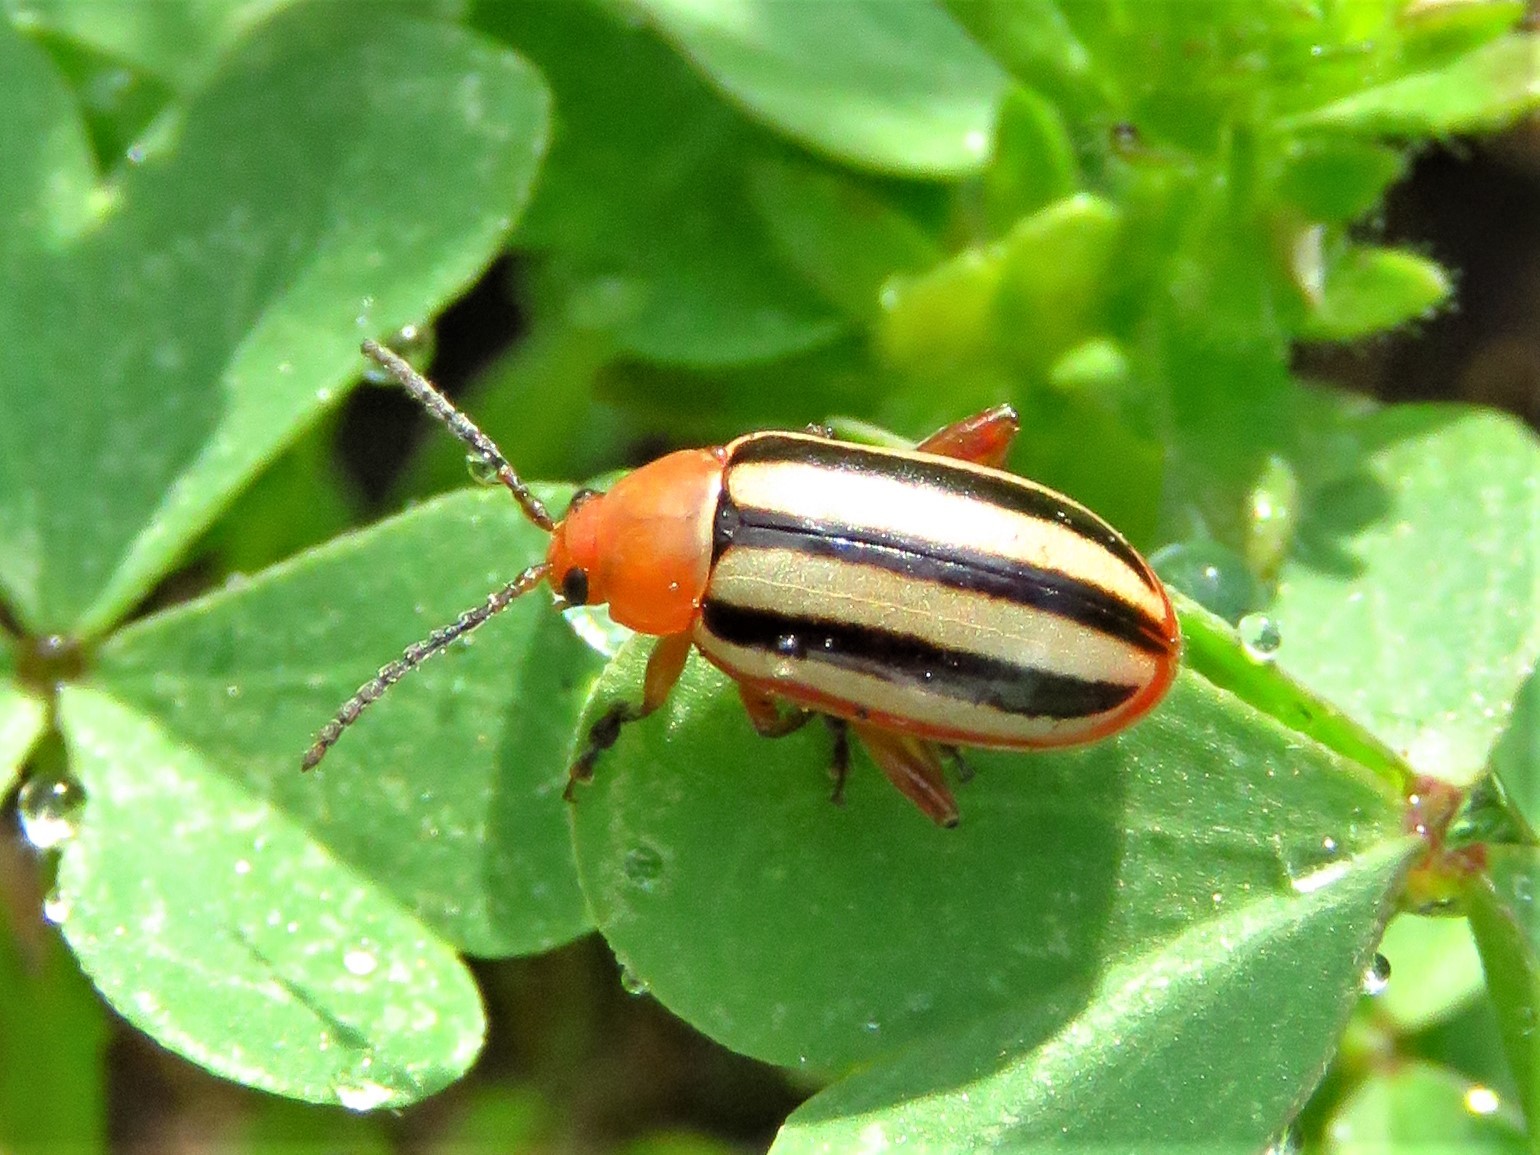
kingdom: Animalia
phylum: Arthropoda
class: Insecta
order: Coleoptera
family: Chrysomelidae
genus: Disonycha
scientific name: Disonycha leptolineata
